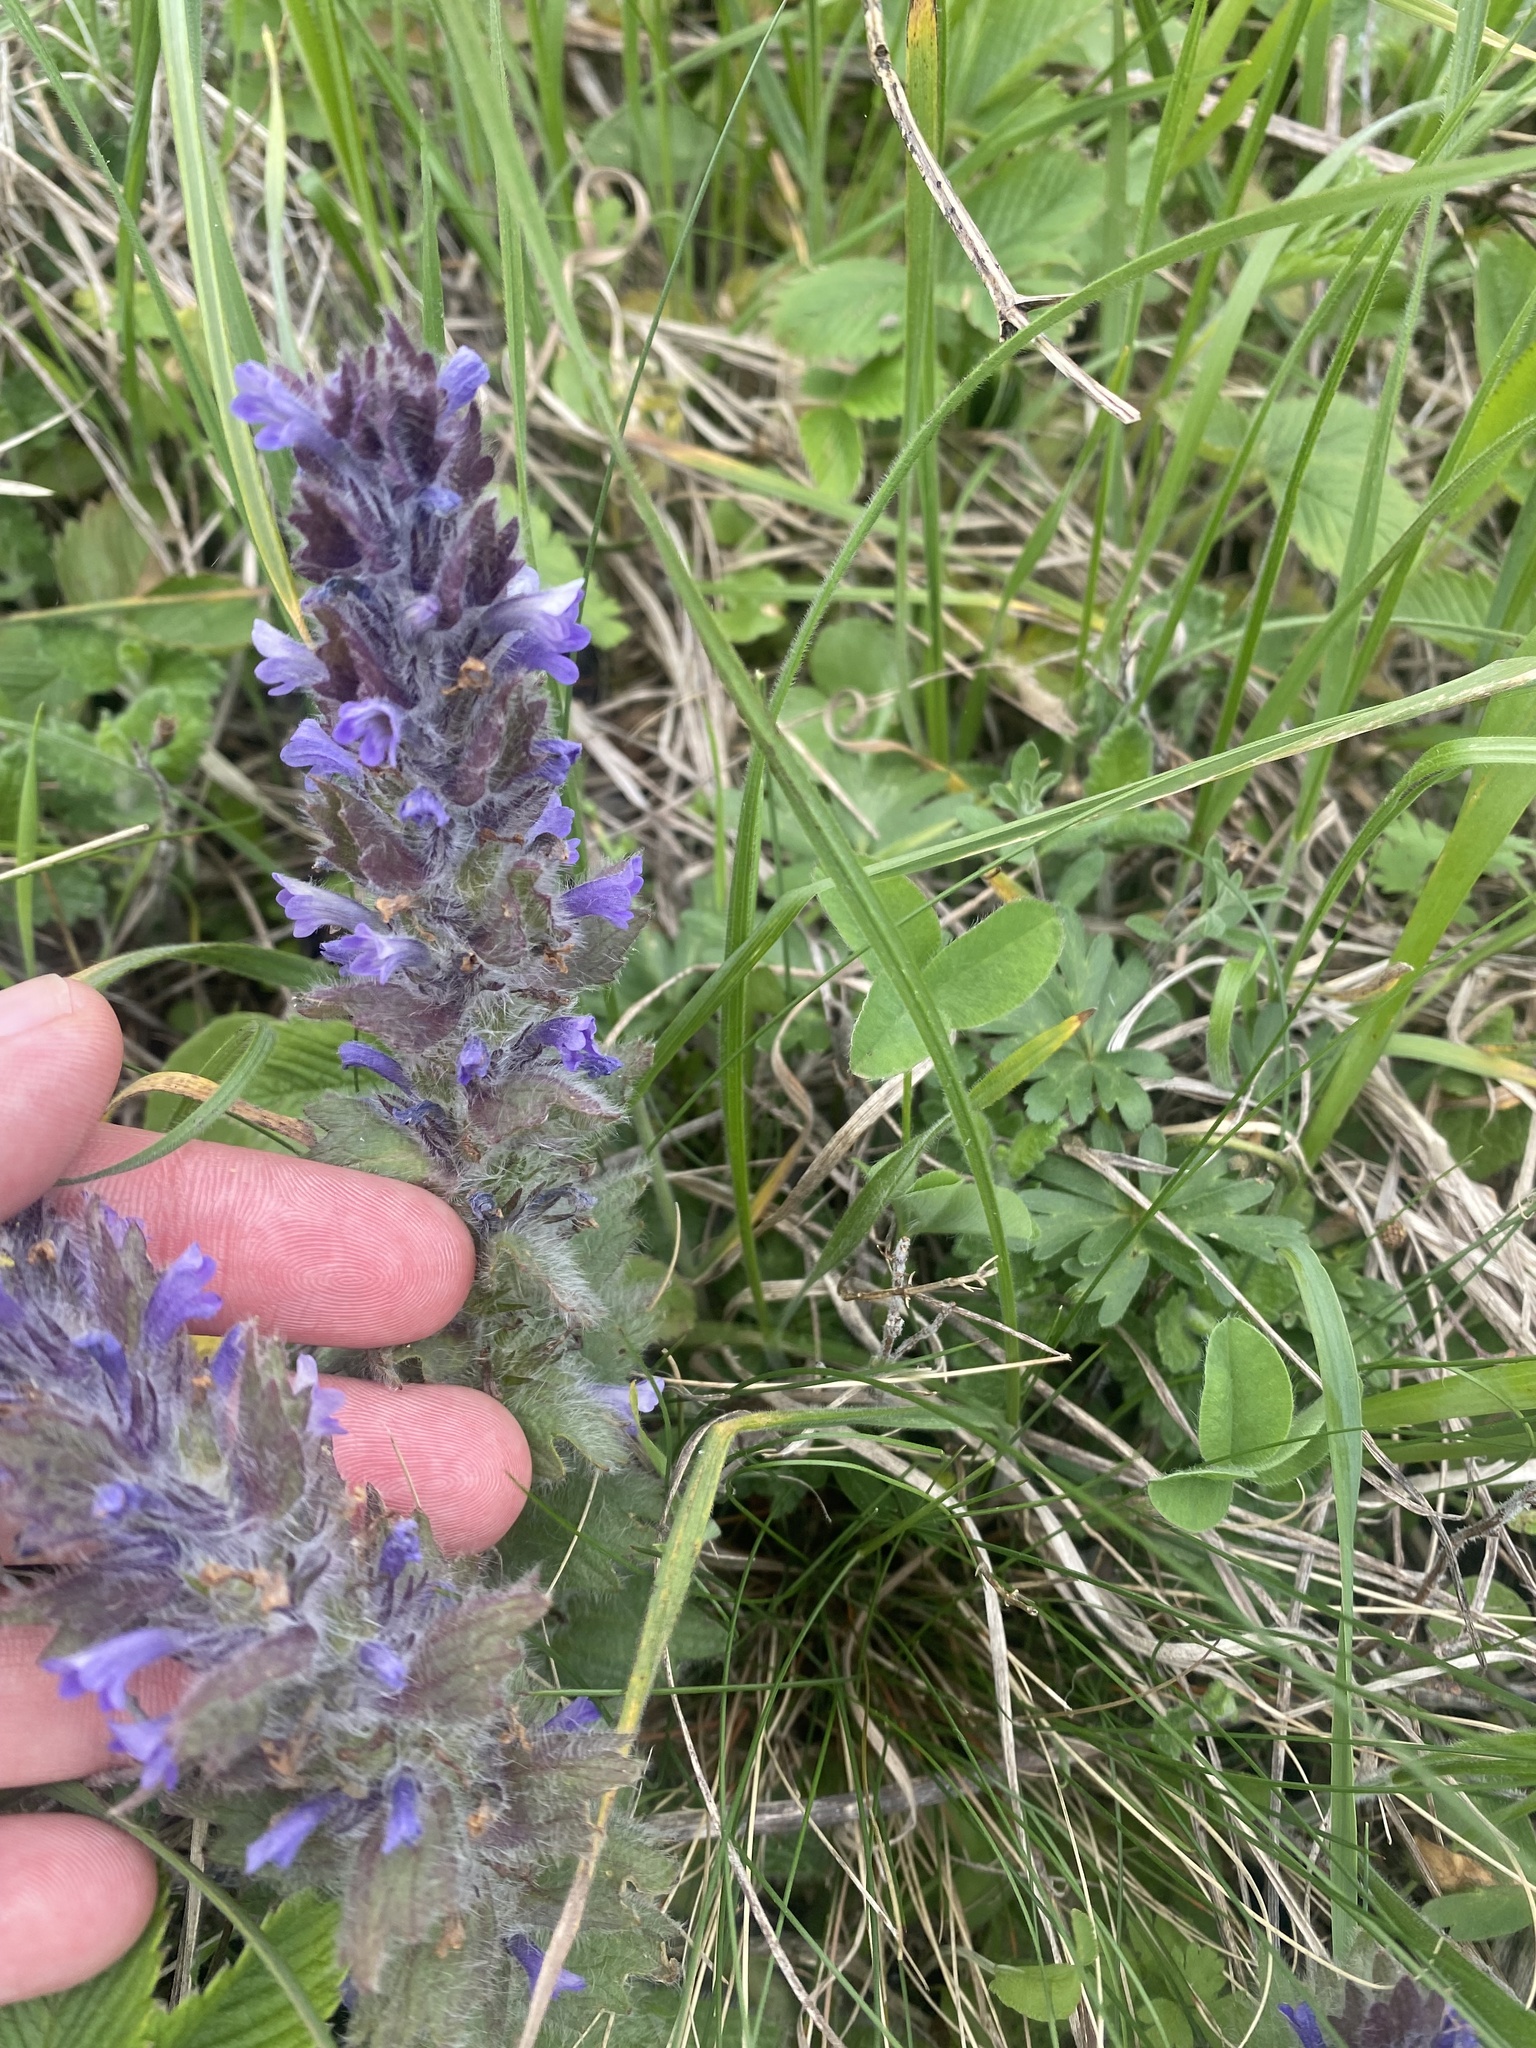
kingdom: Plantae
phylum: Tracheophyta
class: Magnoliopsida
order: Lamiales
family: Lamiaceae
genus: Ajuga
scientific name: Ajuga orientalis
